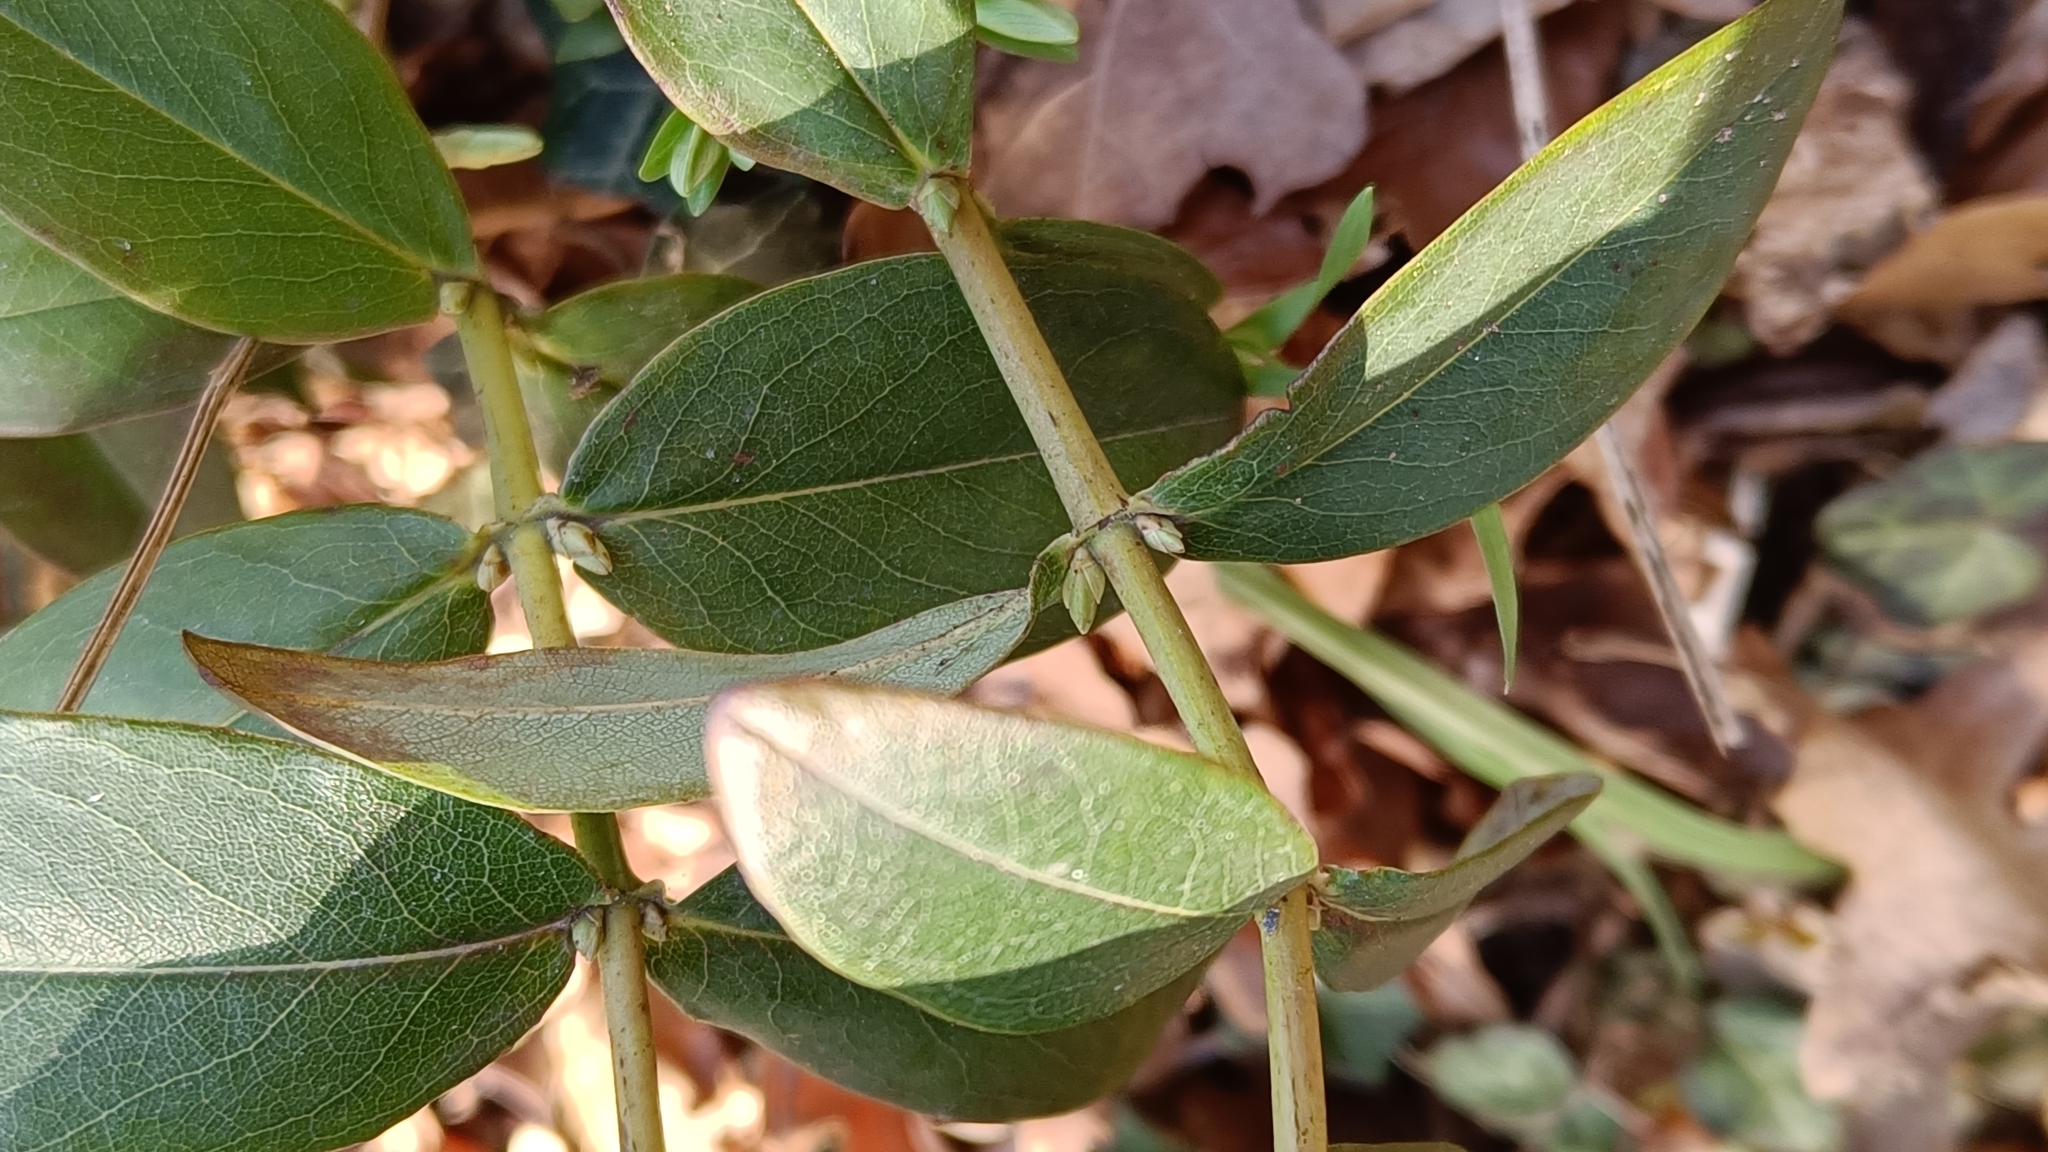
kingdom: Plantae
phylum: Tracheophyta
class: Magnoliopsida
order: Malpighiales
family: Hypericaceae
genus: Hypericum
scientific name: Hypericum calycinum
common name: Rose-of-sharon
